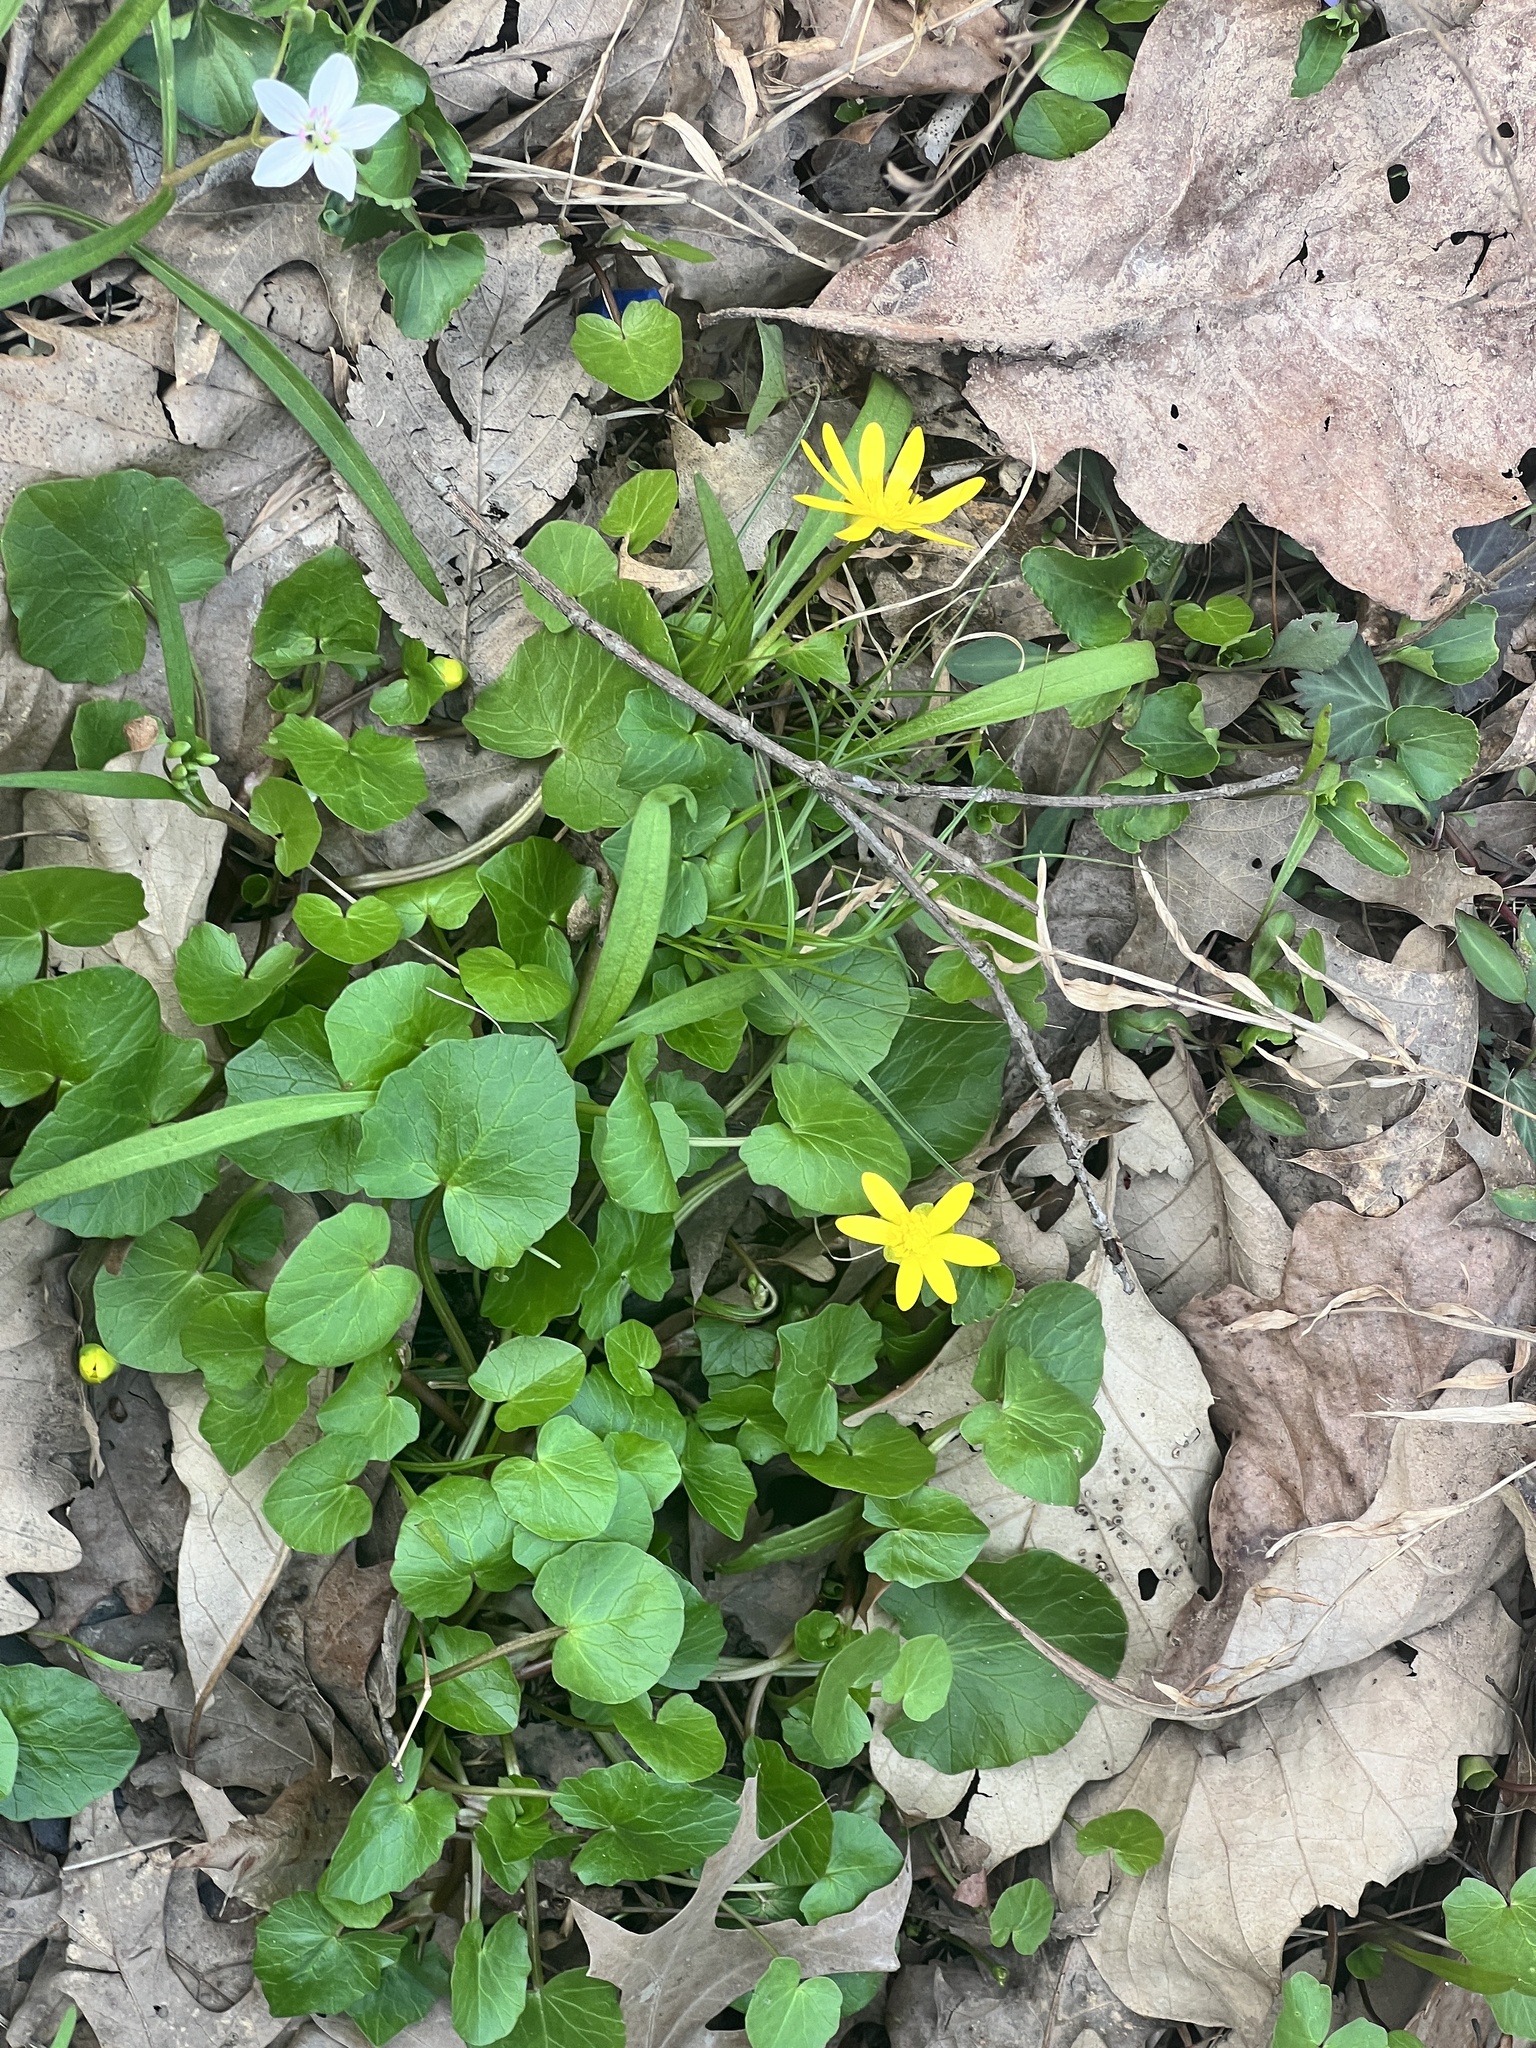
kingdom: Plantae
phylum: Tracheophyta
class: Magnoliopsida
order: Ranunculales
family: Ranunculaceae
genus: Ficaria
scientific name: Ficaria verna
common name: Lesser celandine
